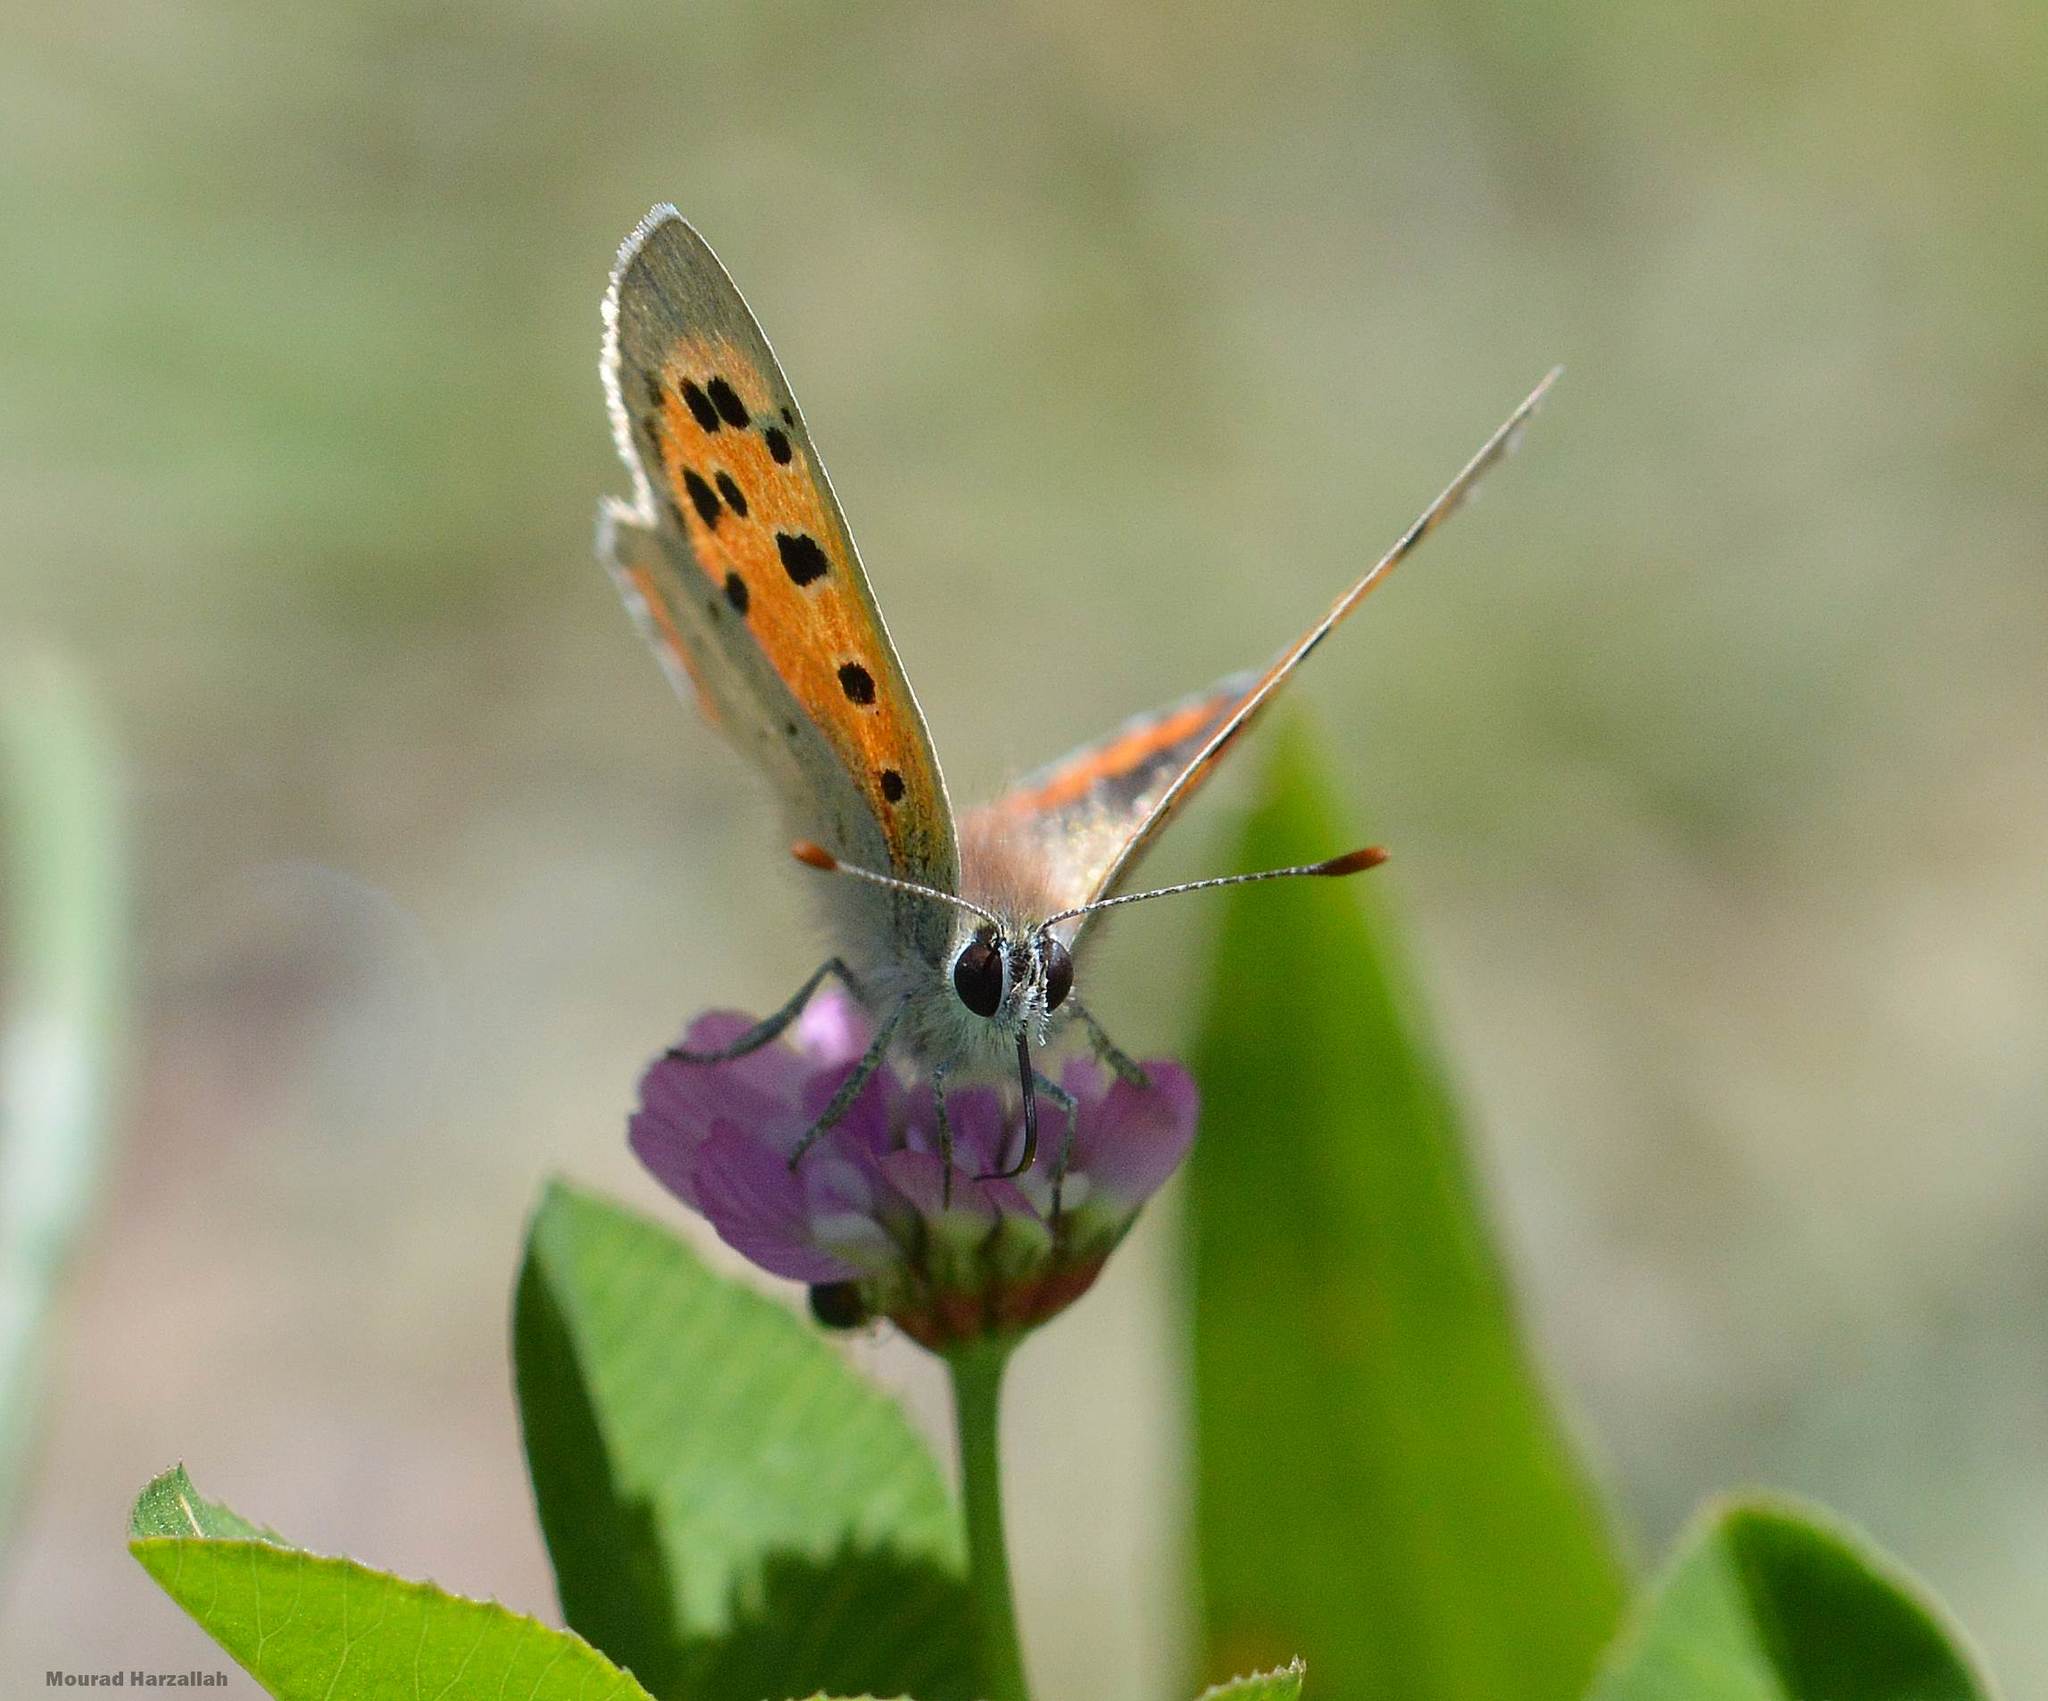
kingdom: Animalia
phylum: Arthropoda
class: Insecta
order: Lepidoptera
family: Lycaenidae
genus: Lycaena
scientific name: Lycaena phlaeas
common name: Small copper
